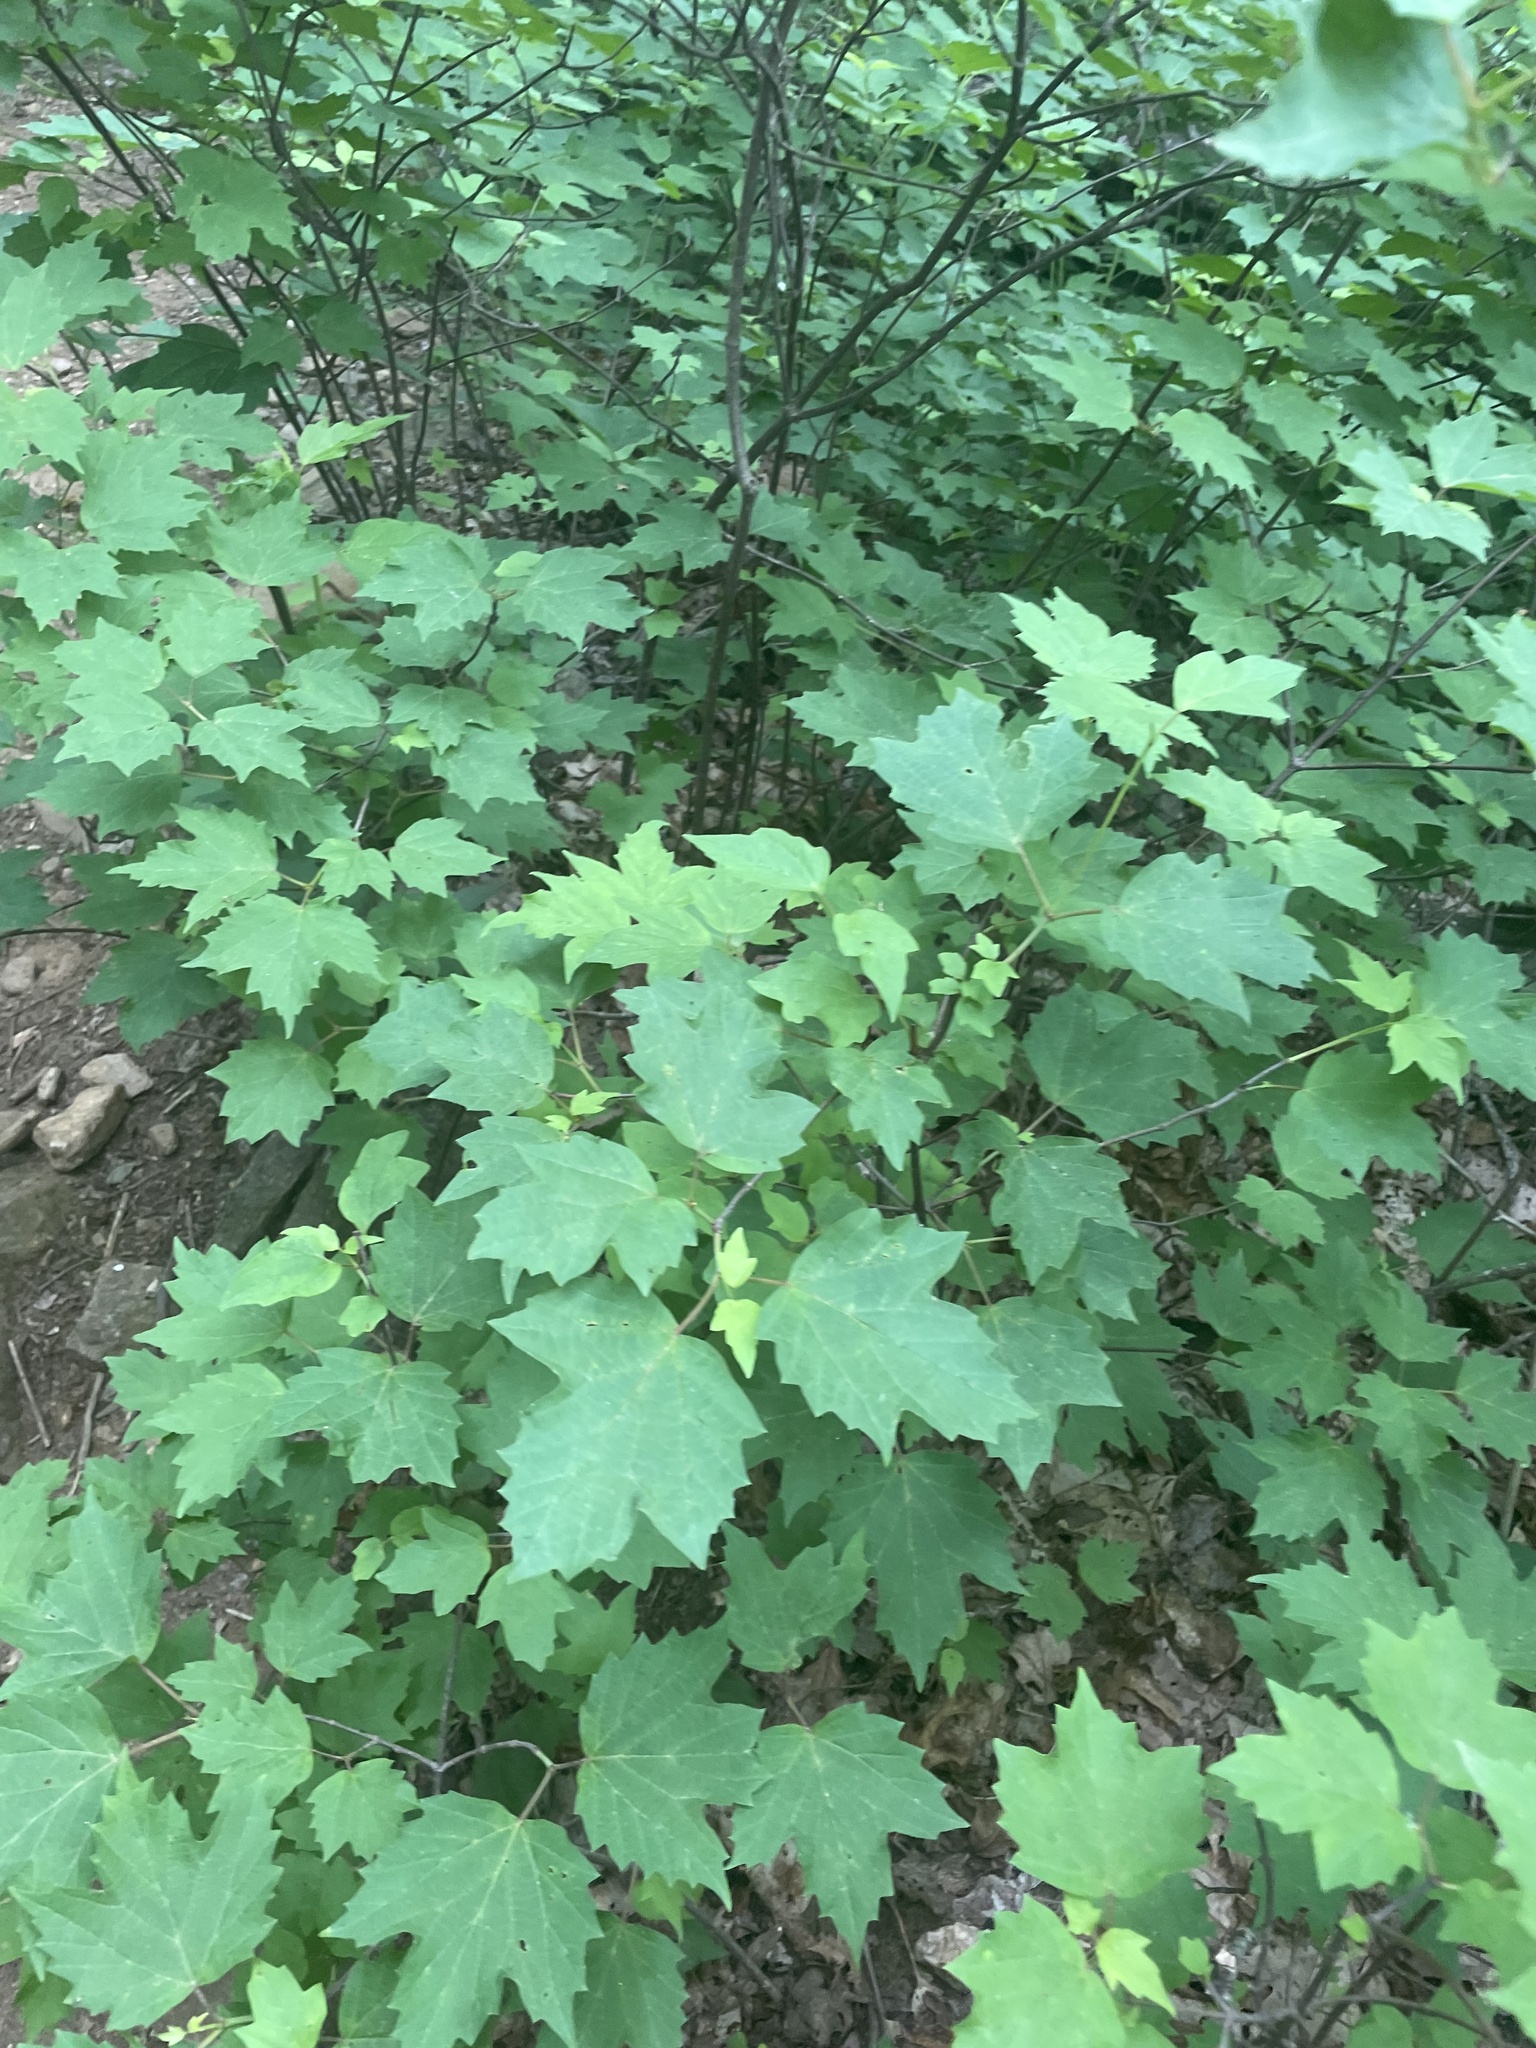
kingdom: Plantae
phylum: Tracheophyta
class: Magnoliopsida
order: Dipsacales
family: Viburnaceae
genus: Viburnum
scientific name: Viburnum acerifolium
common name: Dockmackie
